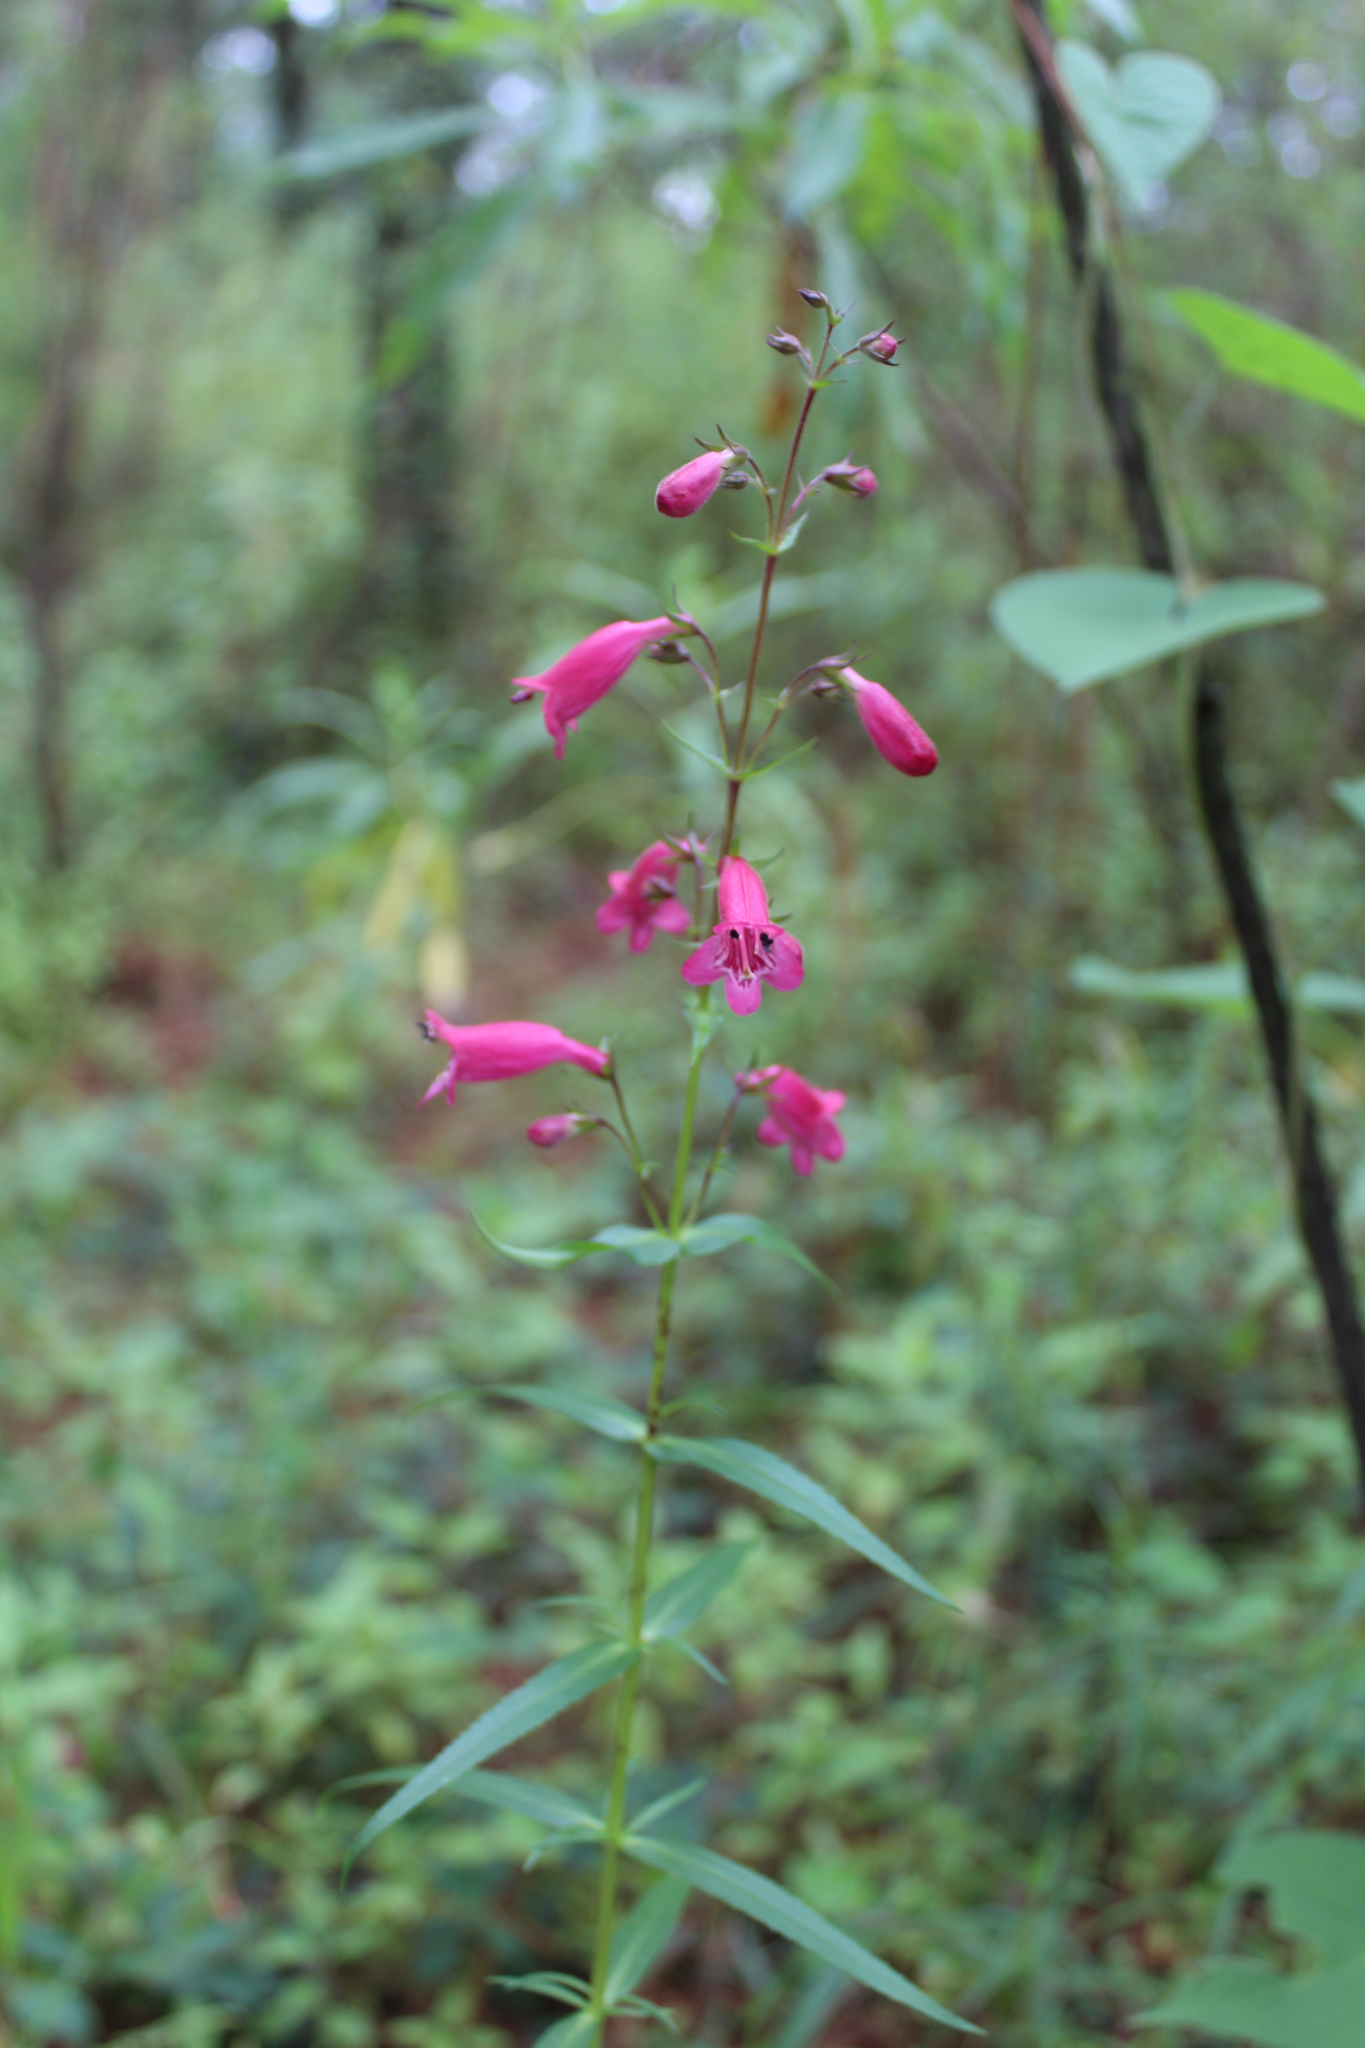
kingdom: Plantae
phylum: Tracheophyta
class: Magnoliopsida
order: Lamiales
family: Plantaginaceae
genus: Penstemon
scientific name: Penstemon roseus
